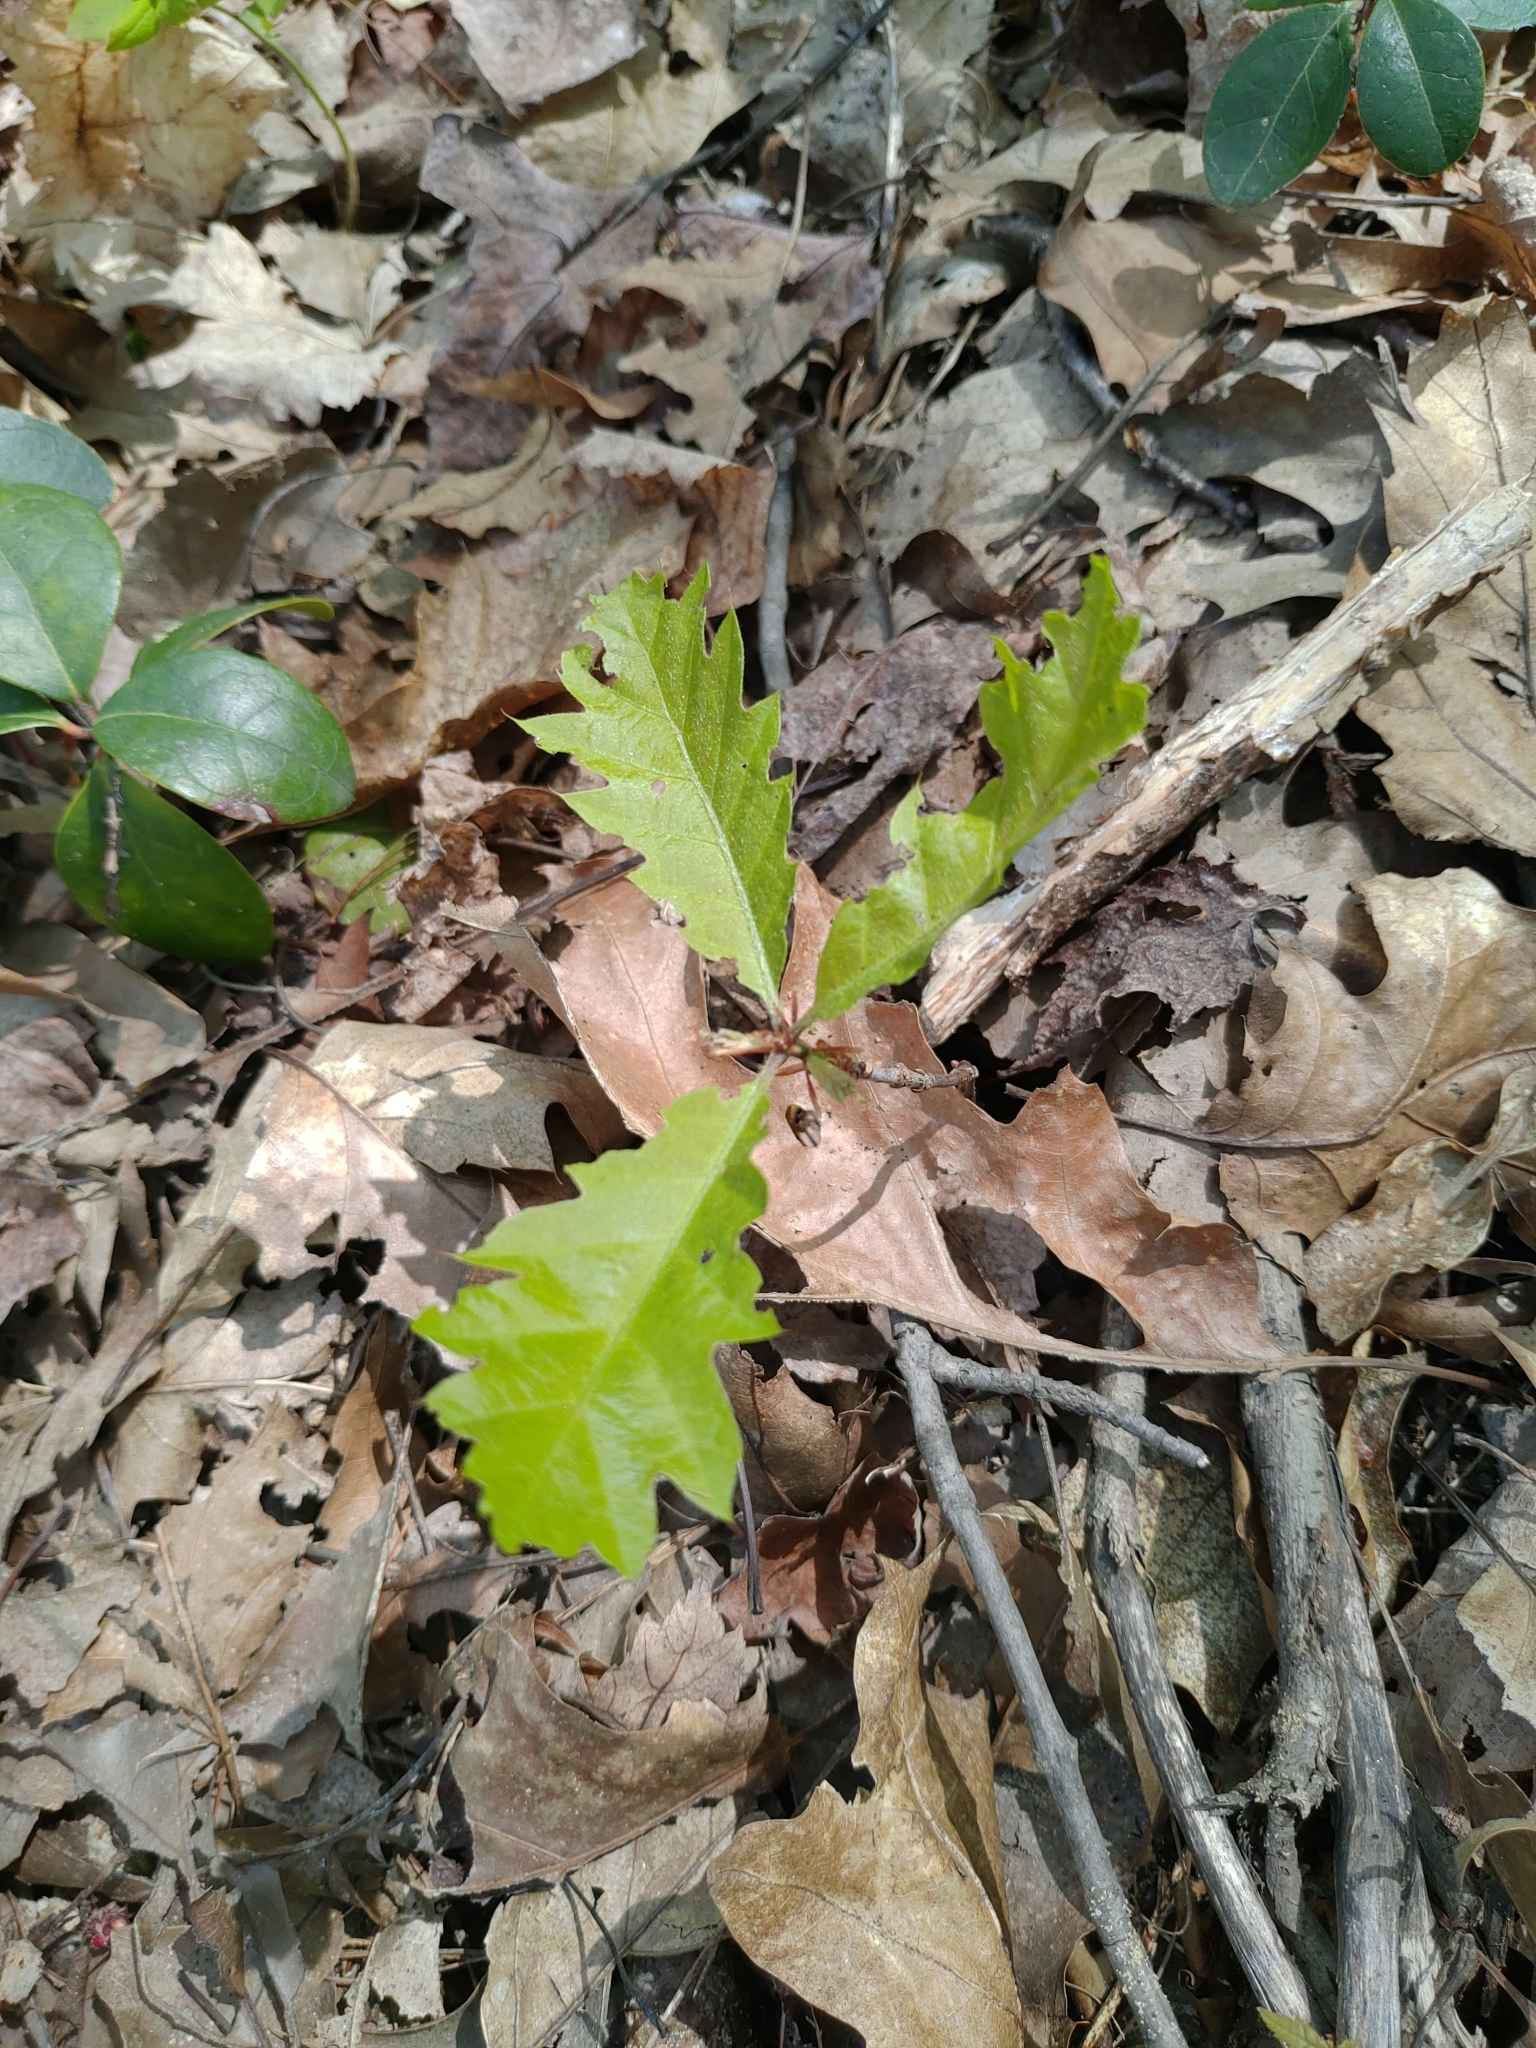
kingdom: Plantae
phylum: Tracheophyta
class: Magnoliopsida
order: Fagales
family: Fagaceae
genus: Quercus
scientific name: Quercus rubra
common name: Red oak
